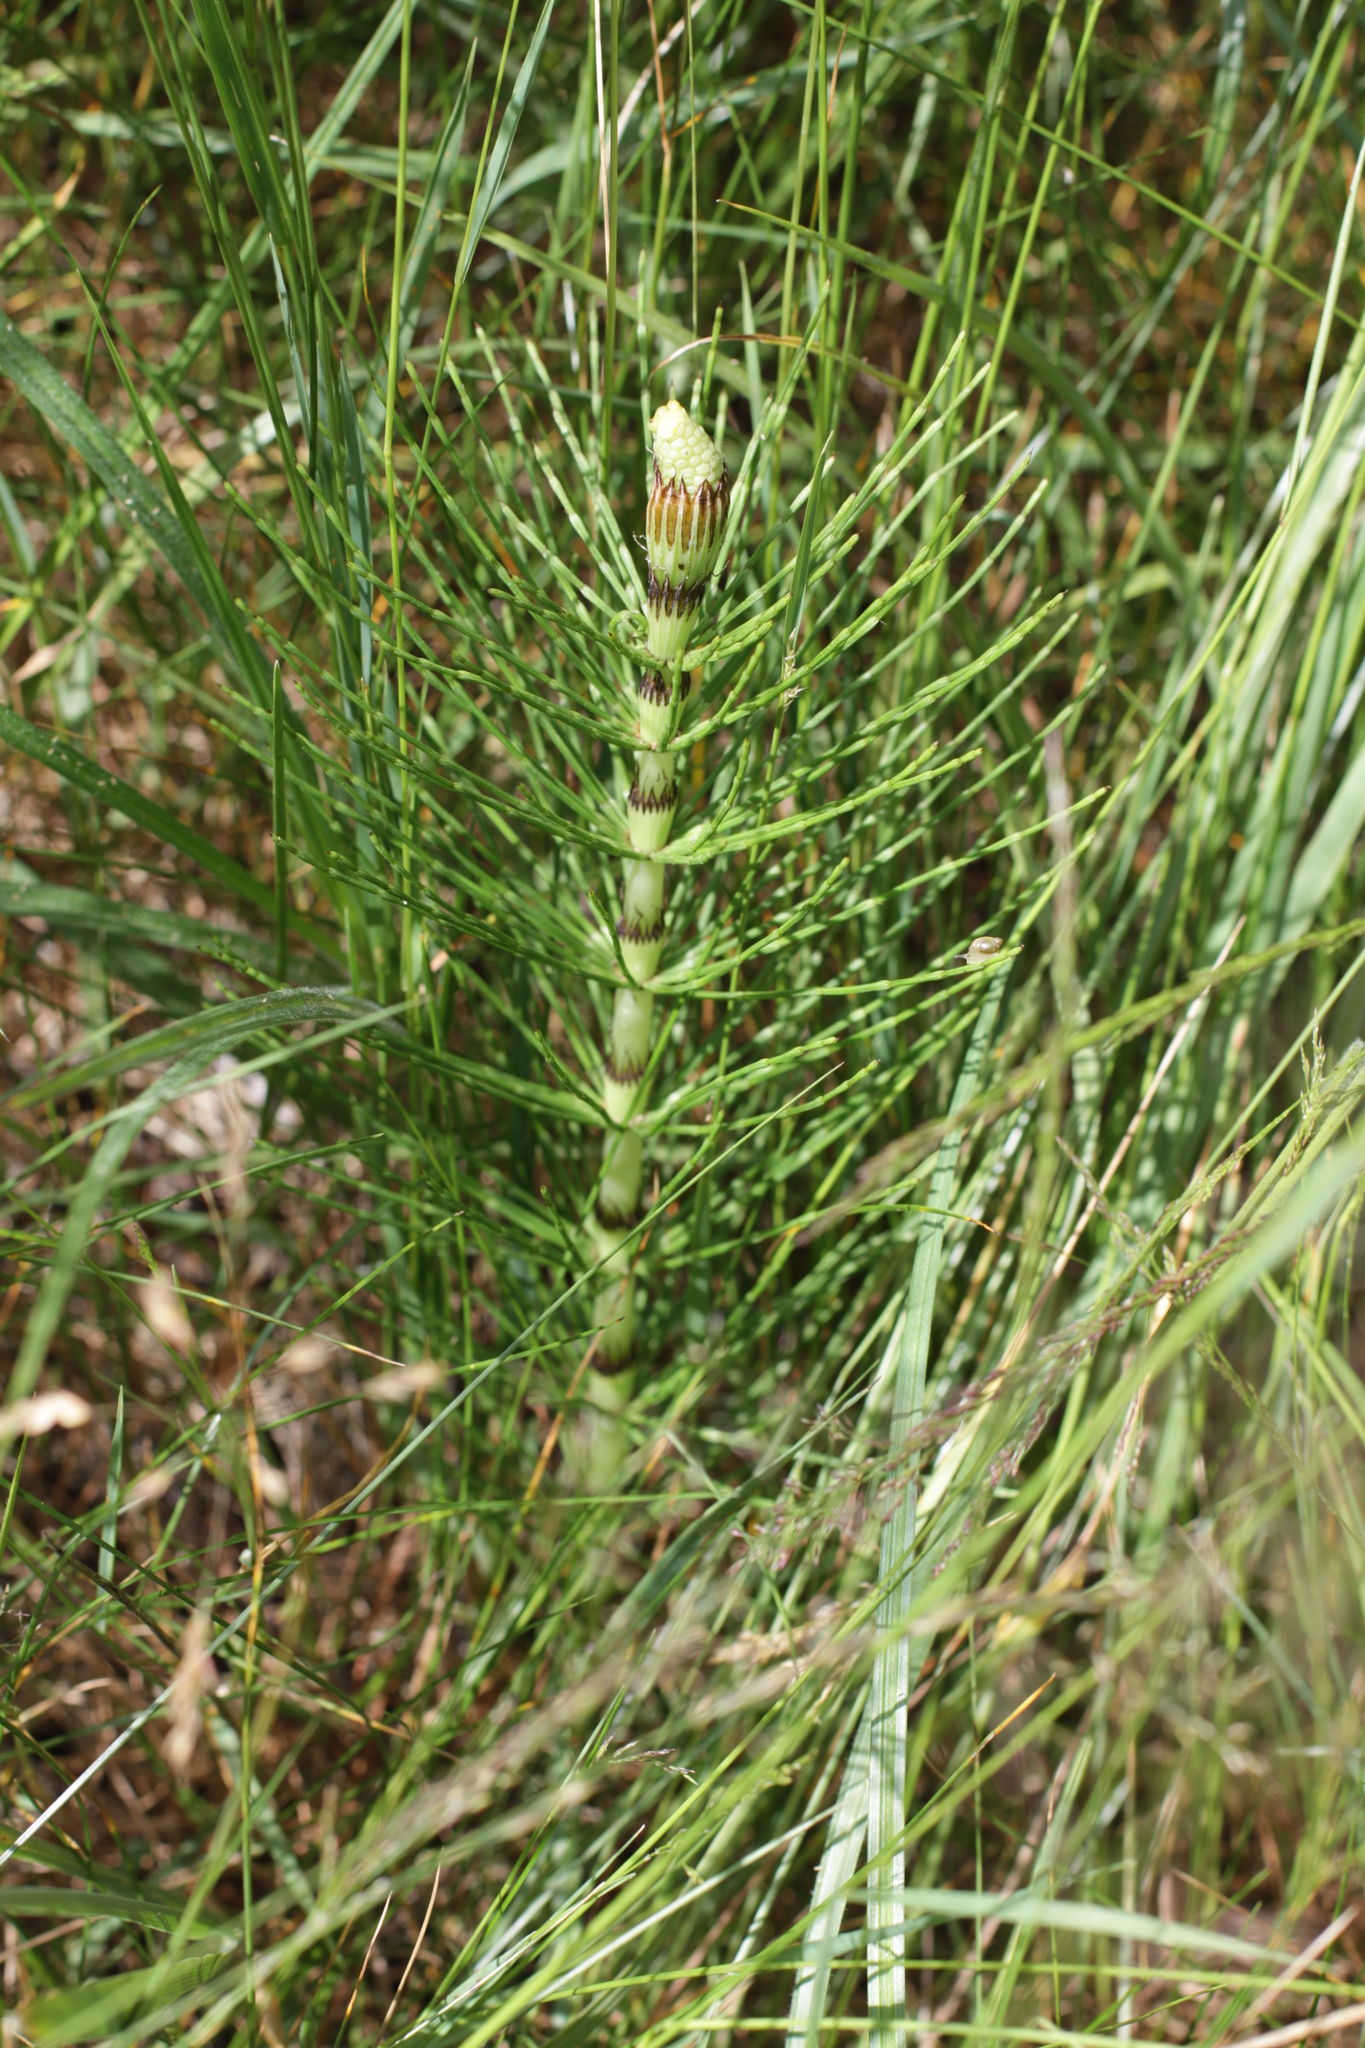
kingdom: Plantae
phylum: Tracheophyta
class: Polypodiopsida
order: Equisetales
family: Equisetaceae
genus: Equisetum
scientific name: Equisetum telmateia
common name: Great horsetail
